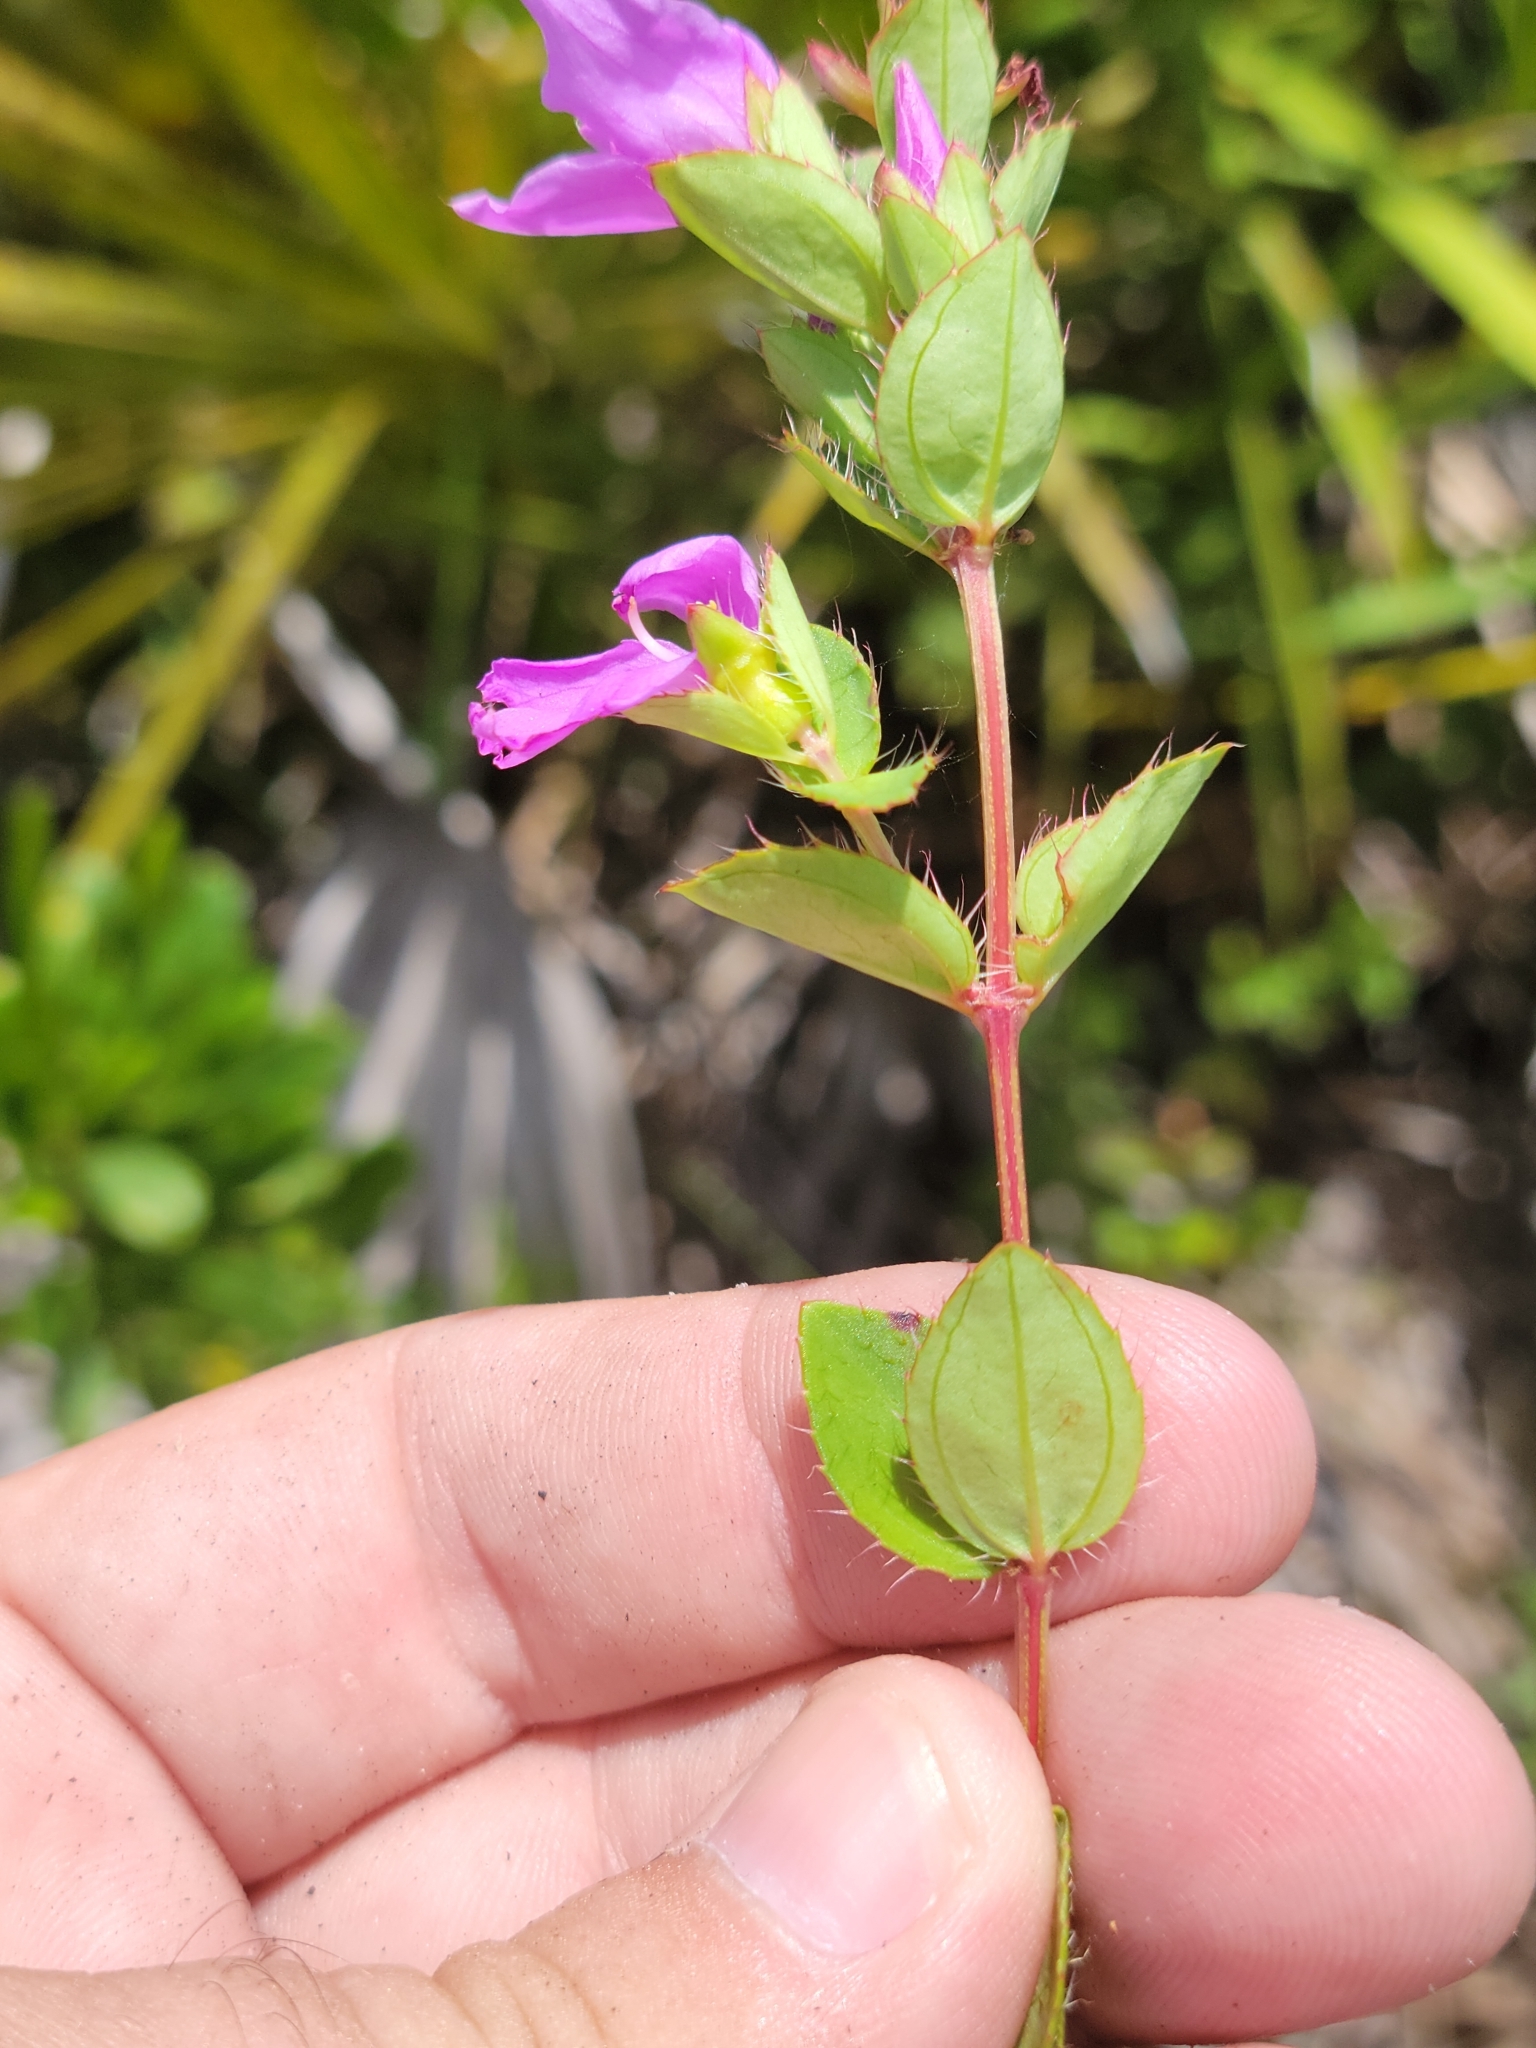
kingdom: Plantae
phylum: Tracheophyta
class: Magnoliopsida
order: Myrtales
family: Melastomataceae
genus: Rhexia
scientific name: Rhexia petiolata
